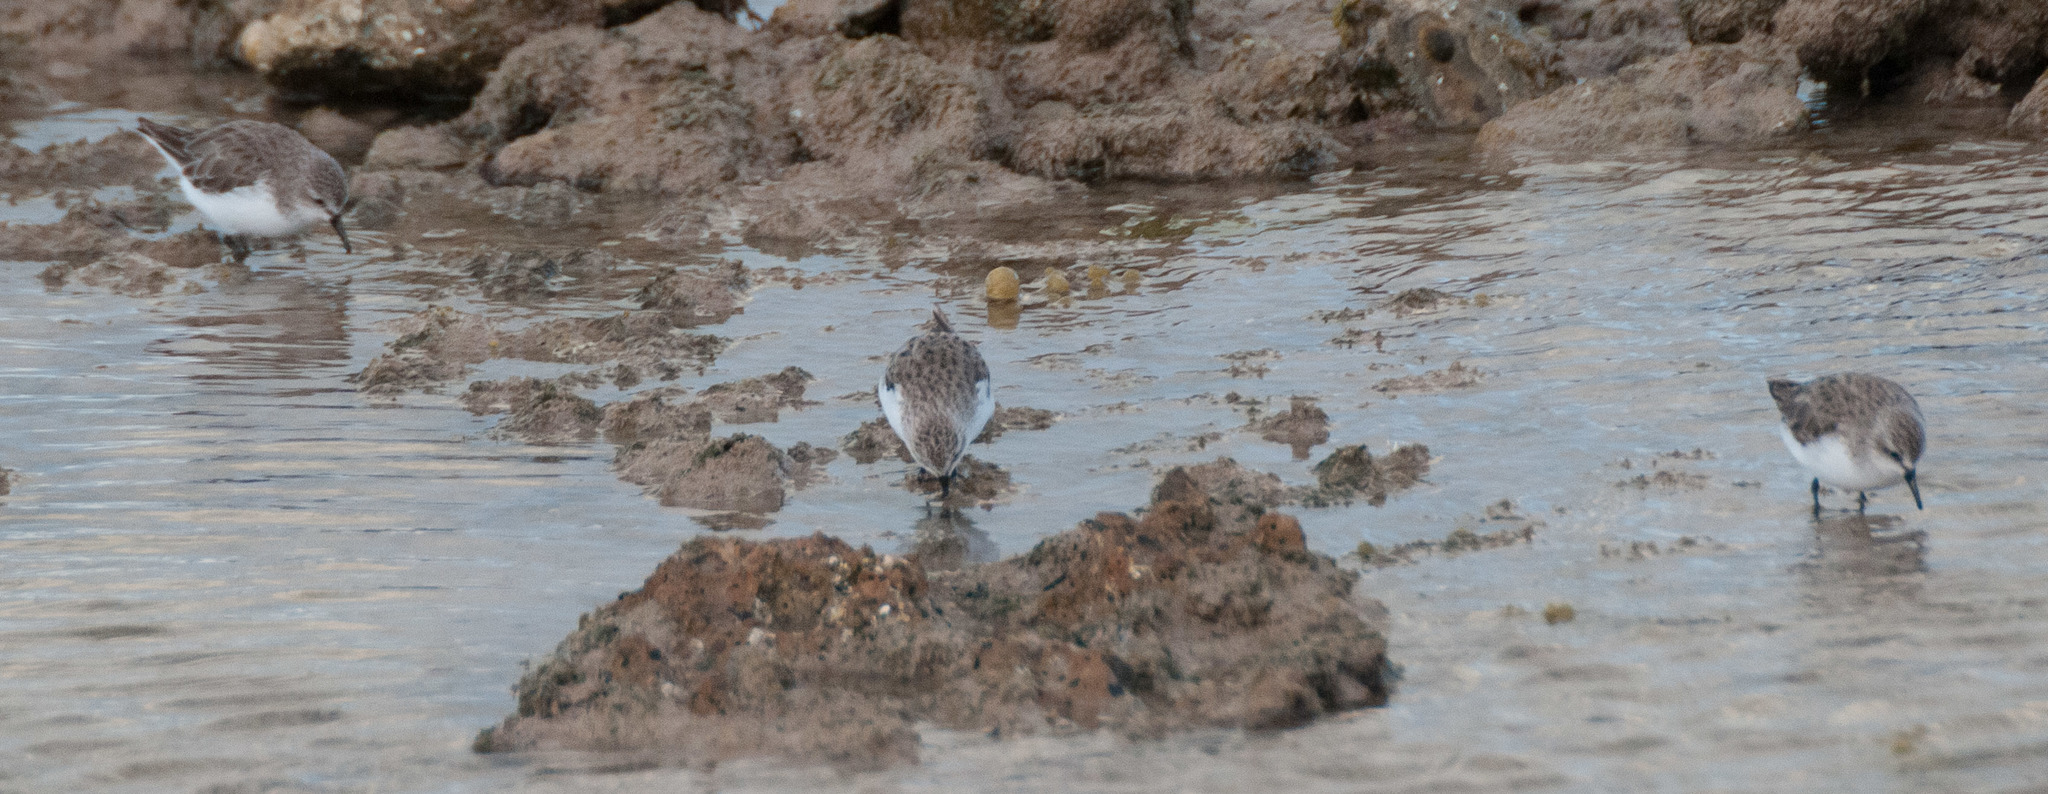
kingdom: Animalia
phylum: Chordata
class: Aves
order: Charadriiformes
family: Scolopacidae
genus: Calidris
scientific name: Calidris ruficollis
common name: Red-necked stint
